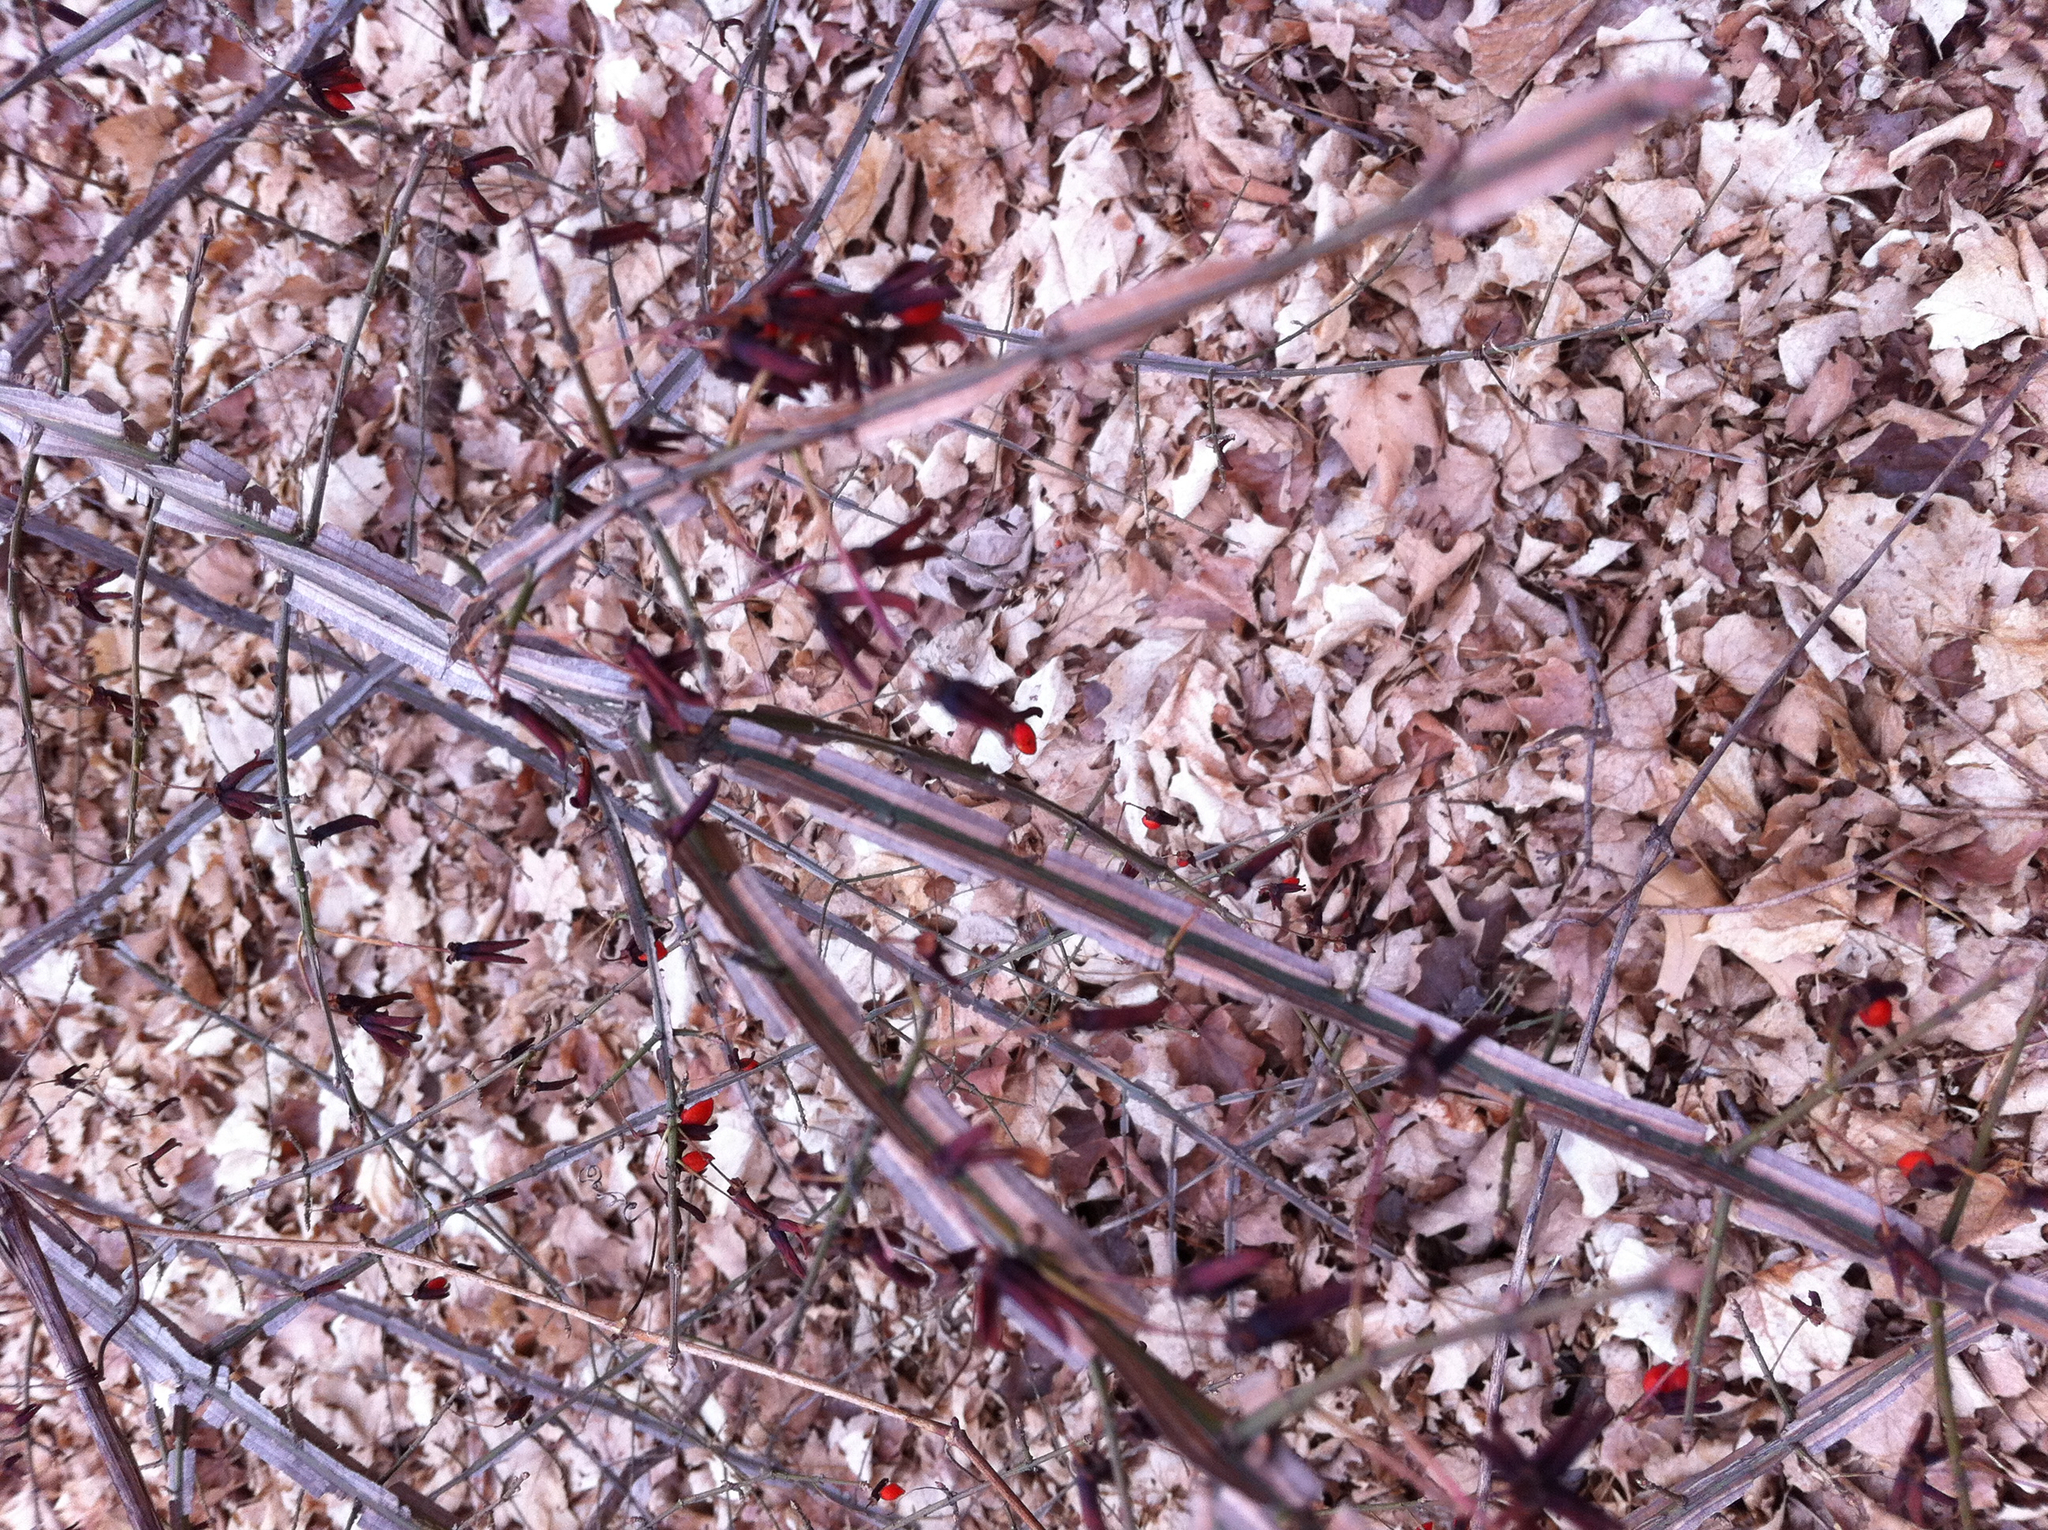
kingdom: Plantae
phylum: Tracheophyta
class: Magnoliopsida
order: Celastrales
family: Celastraceae
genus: Euonymus
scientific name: Euonymus alatus
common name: Winged euonymus
